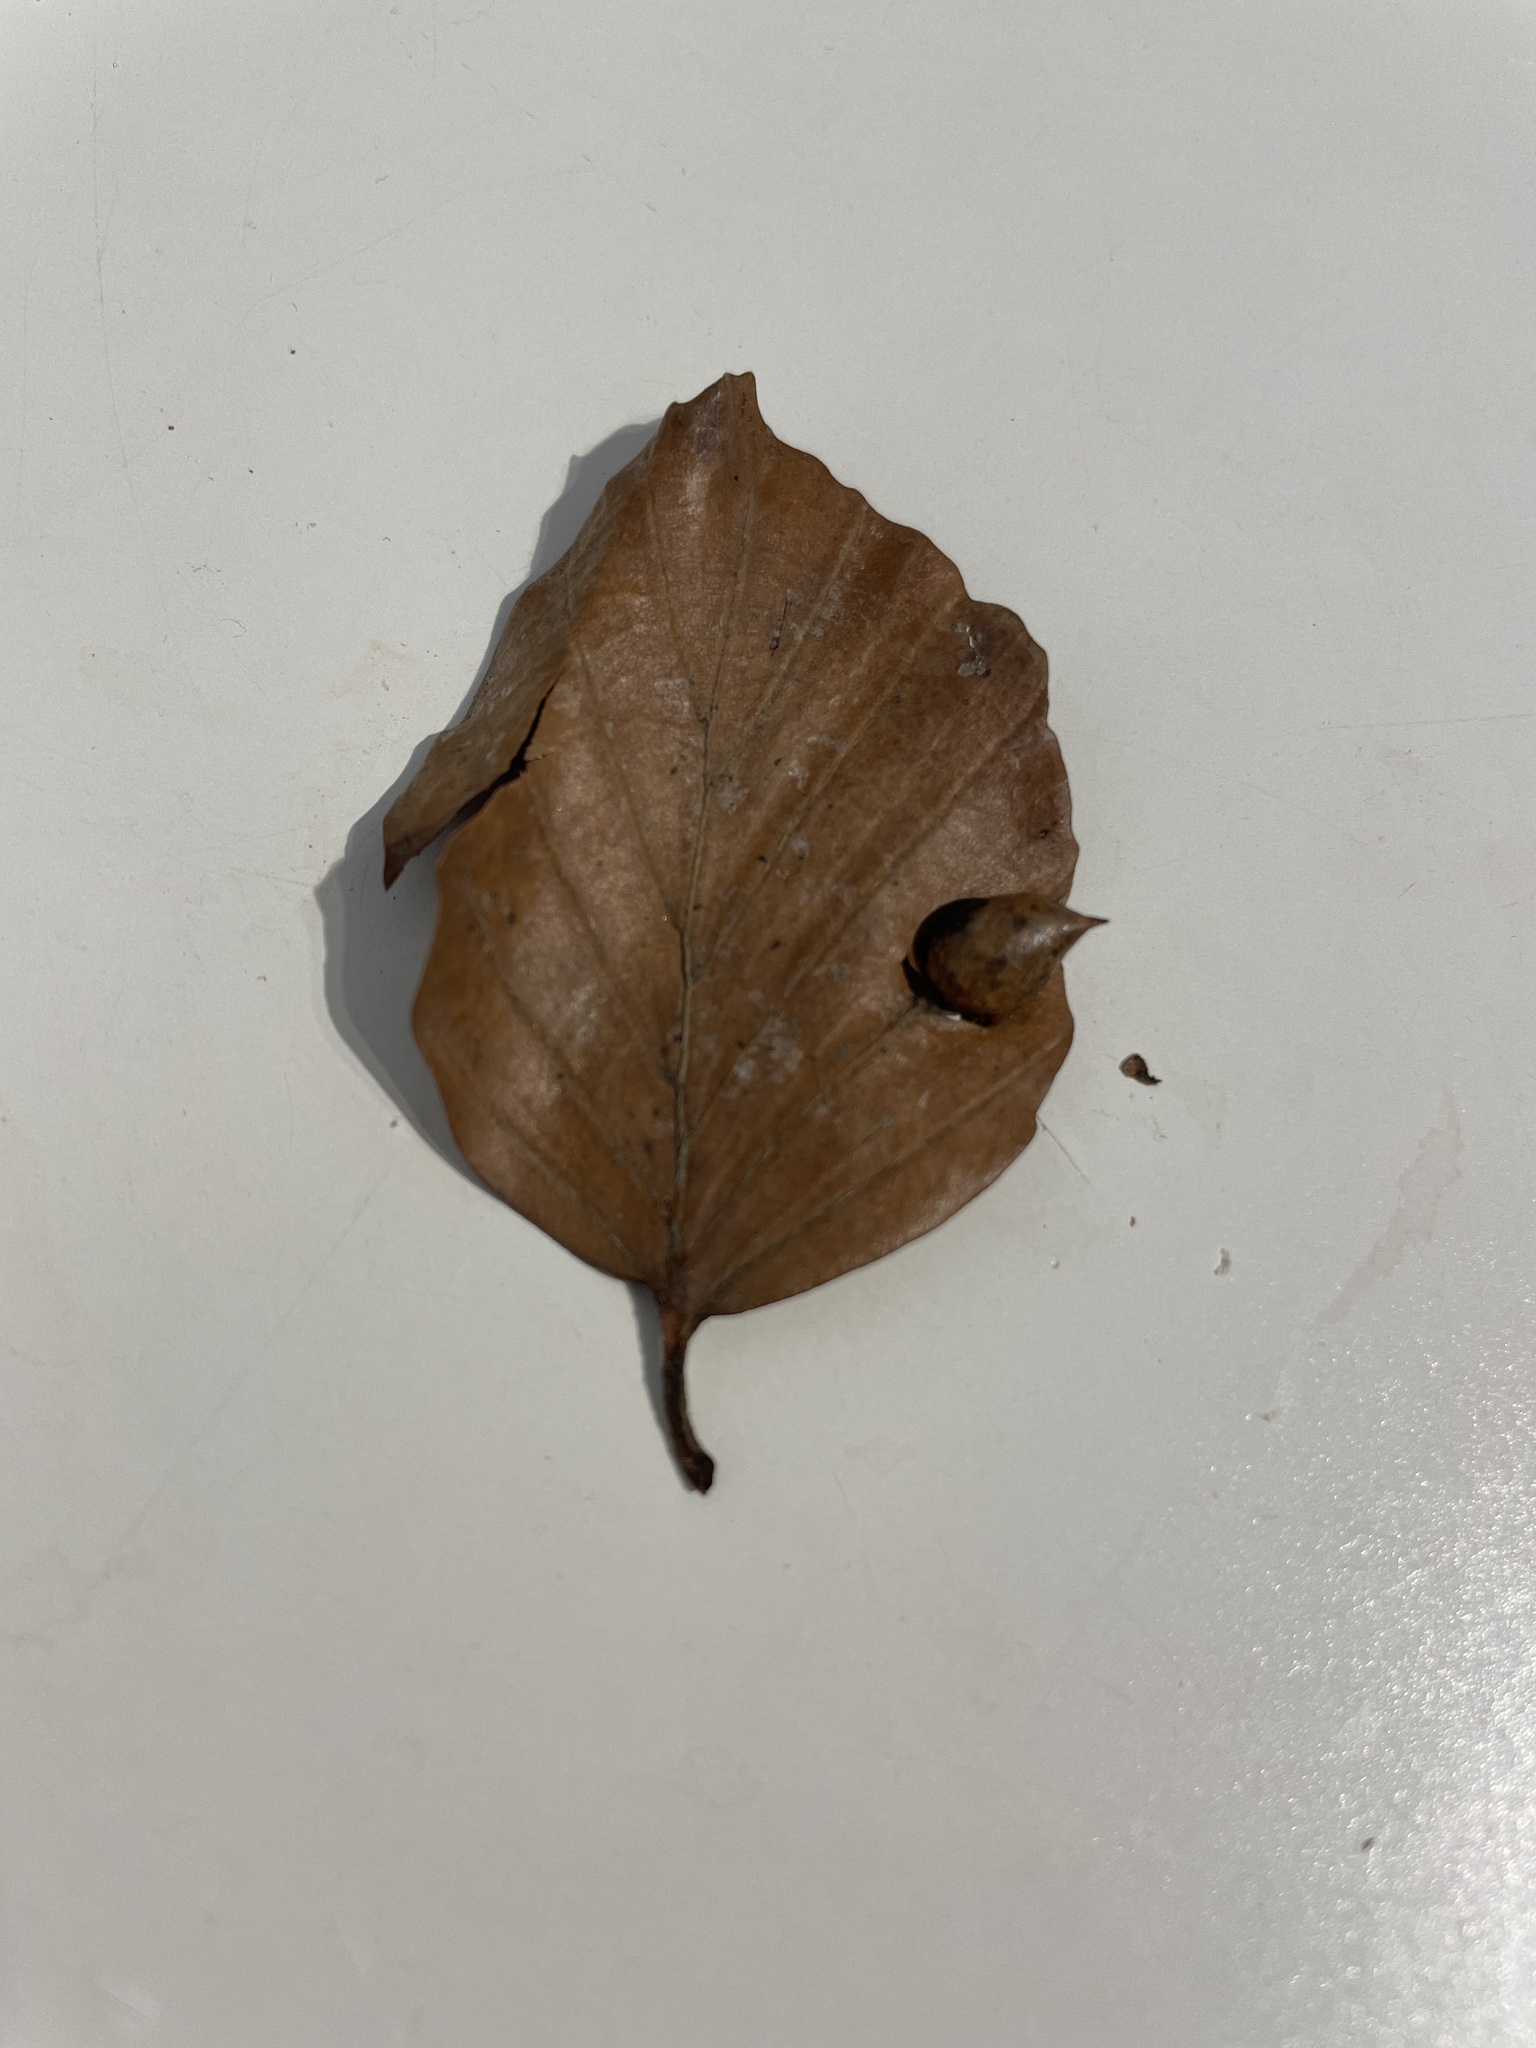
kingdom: Animalia
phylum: Arthropoda
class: Insecta
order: Diptera
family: Cecidomyiidae
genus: Mikiola
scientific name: Mikiola fagi
